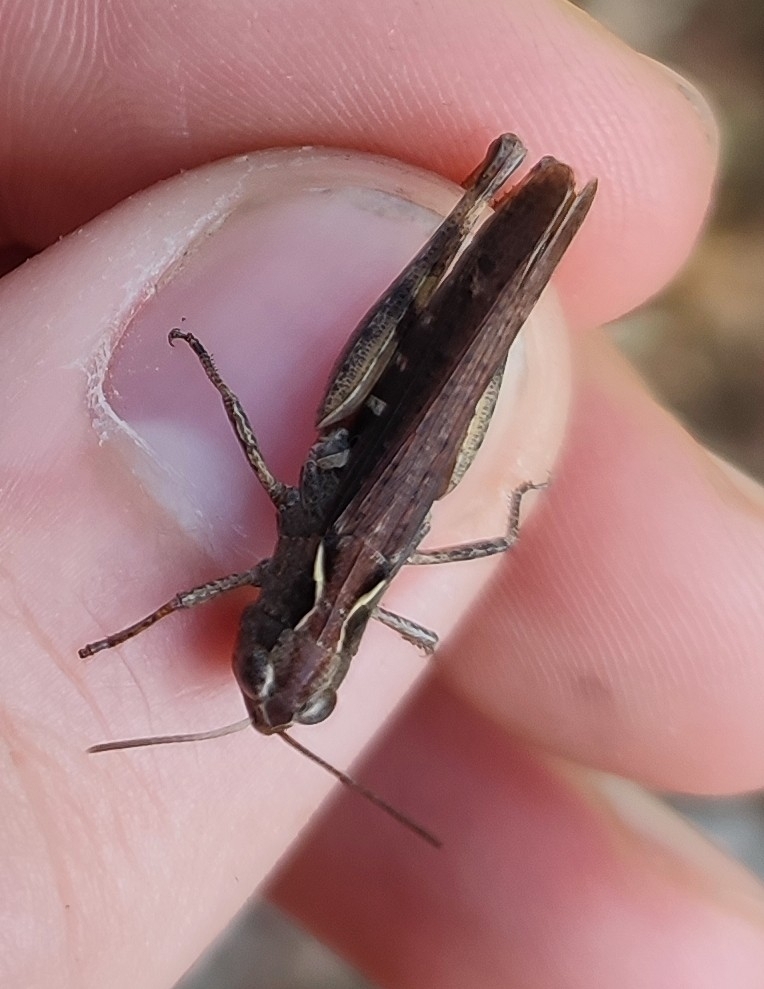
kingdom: Animalia
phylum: Arthropoda
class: Insecta
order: Orthoptera
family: Acrididae
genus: Chorthippus
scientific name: Chorthippus vagans
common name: Heath grasshopper
